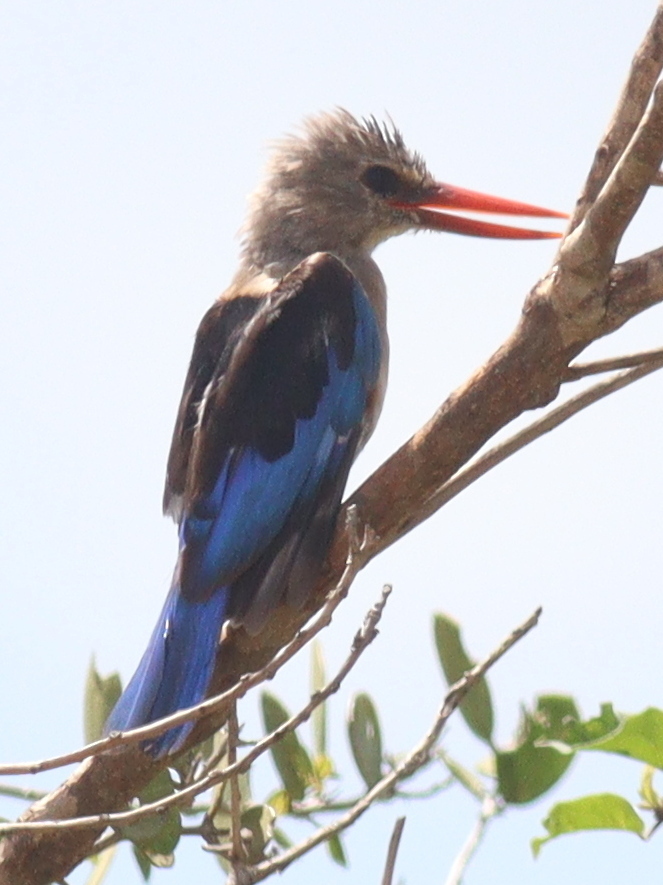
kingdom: Animalia
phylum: Chordata
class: Aves
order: Coraciiformes
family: Alcedinidae
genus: Halcyon
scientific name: Halcyon leucocephala
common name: Grey-headed kingfisher
